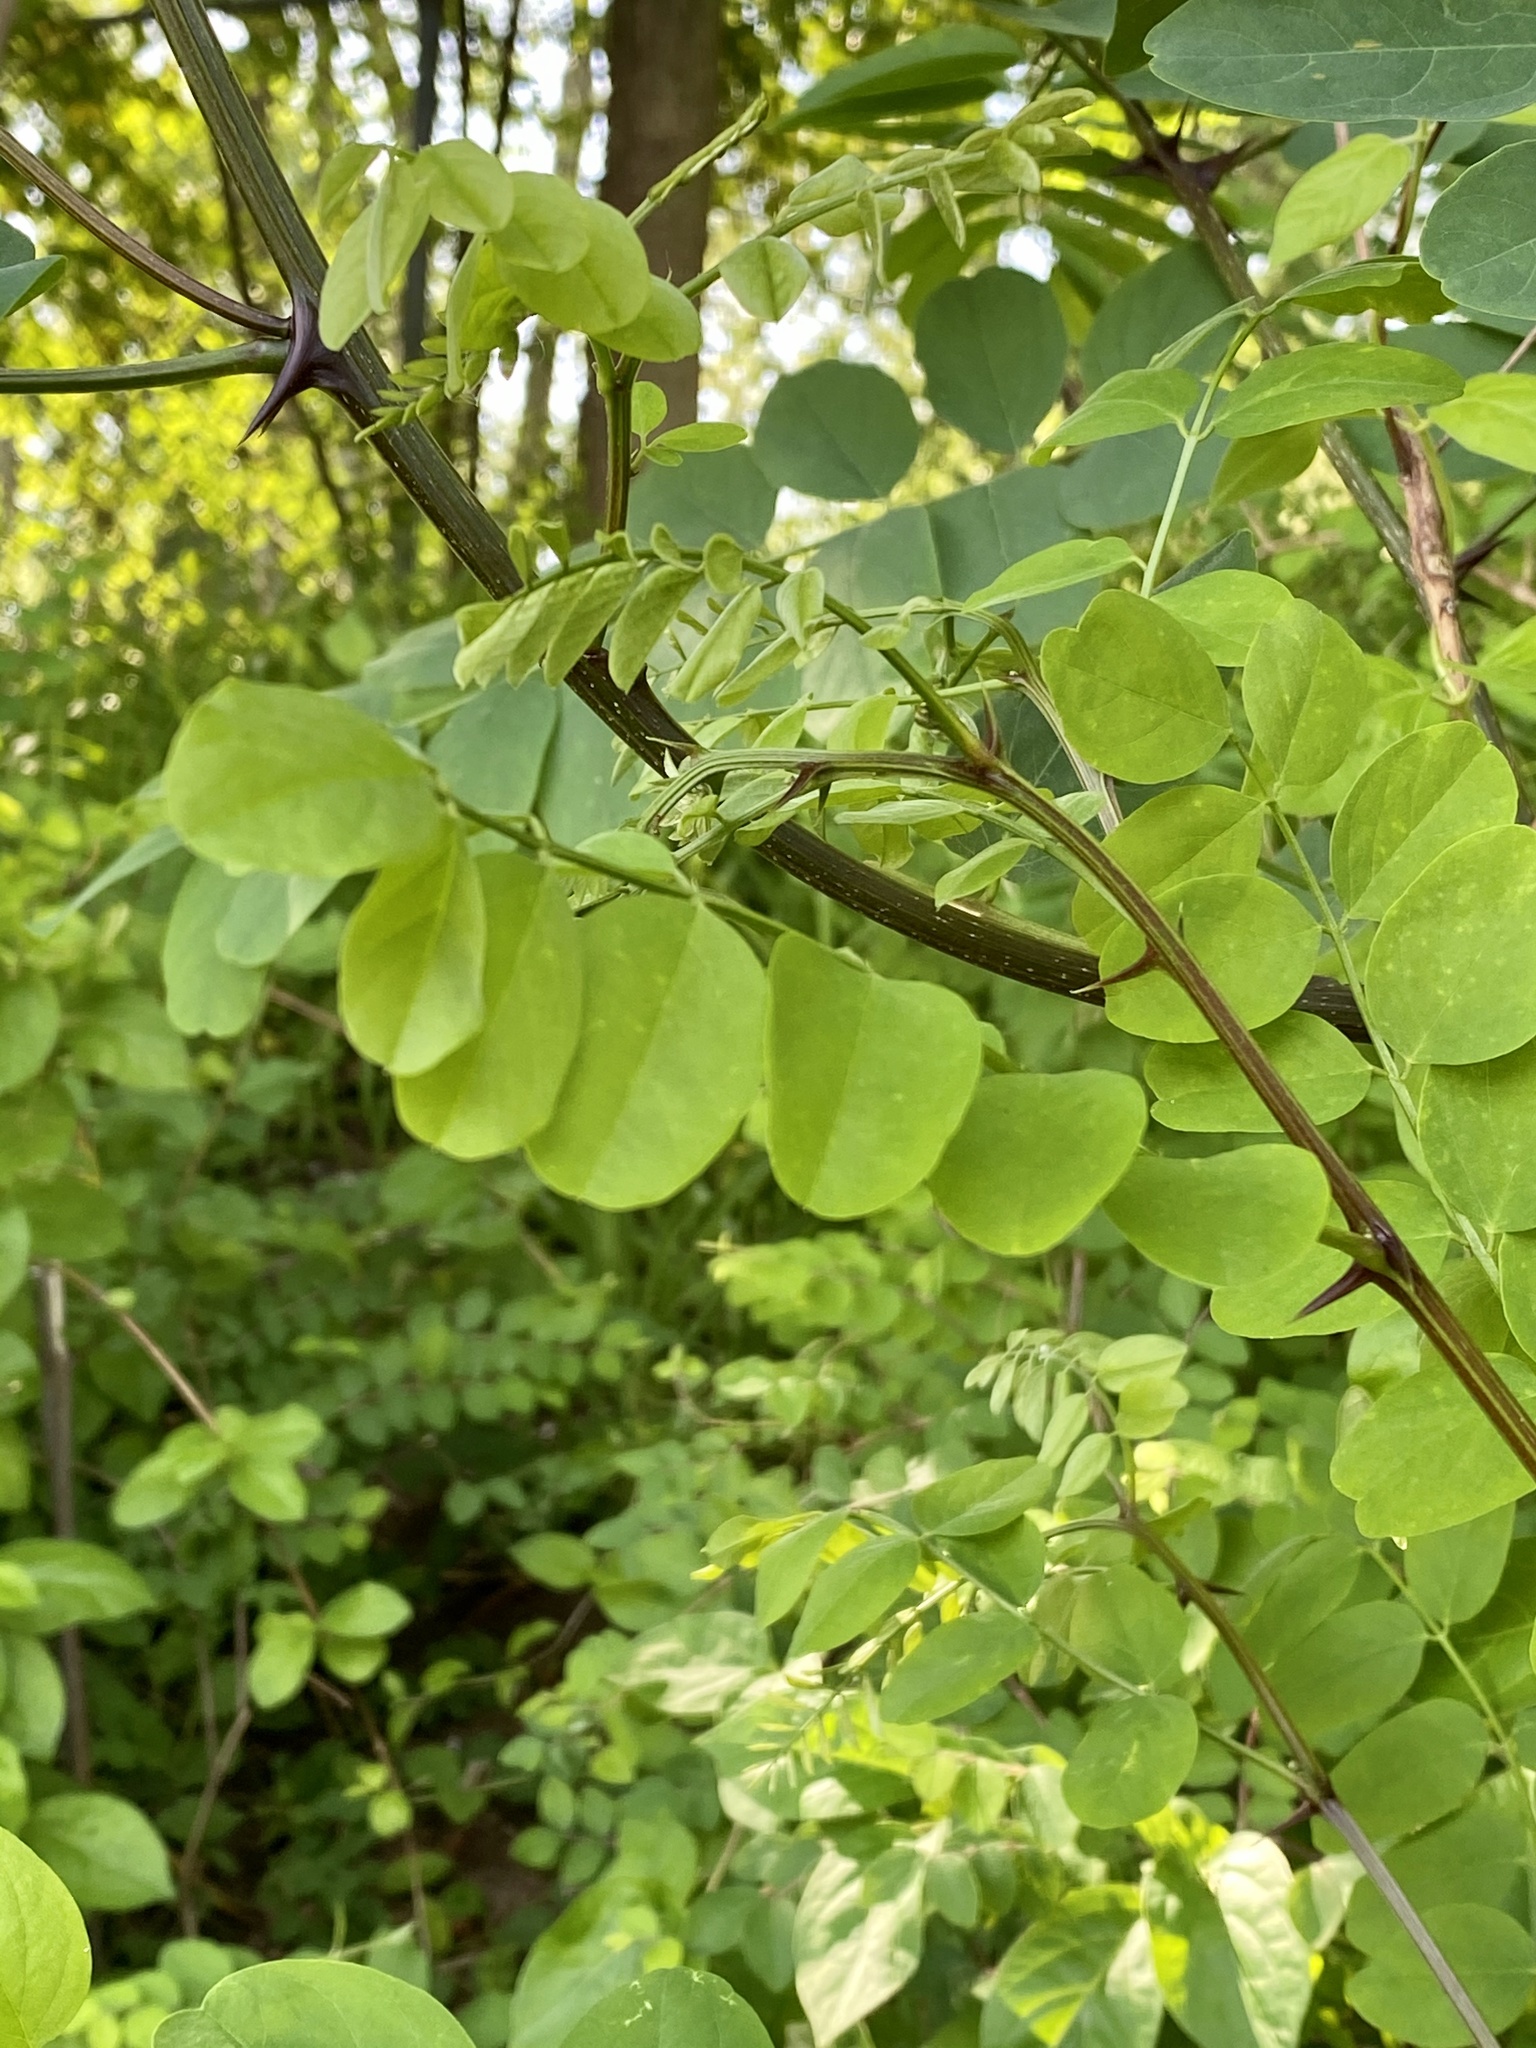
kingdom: Plantae
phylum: Tracheophyta
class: Magnoliopsida
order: Fabales
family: Fabaceae
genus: Robinia
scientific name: Robinia pseudoacacia
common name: Black locust
